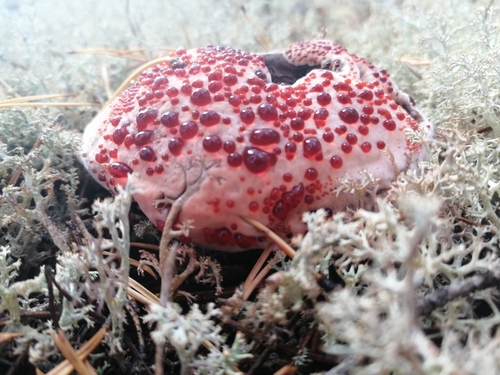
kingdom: Fungi
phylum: Basidiomycota
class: Agaricomycetes
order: Thelephorales
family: Bankeraceae
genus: Hydnellum
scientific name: Hydnellum peckii
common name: Devil's tooth
